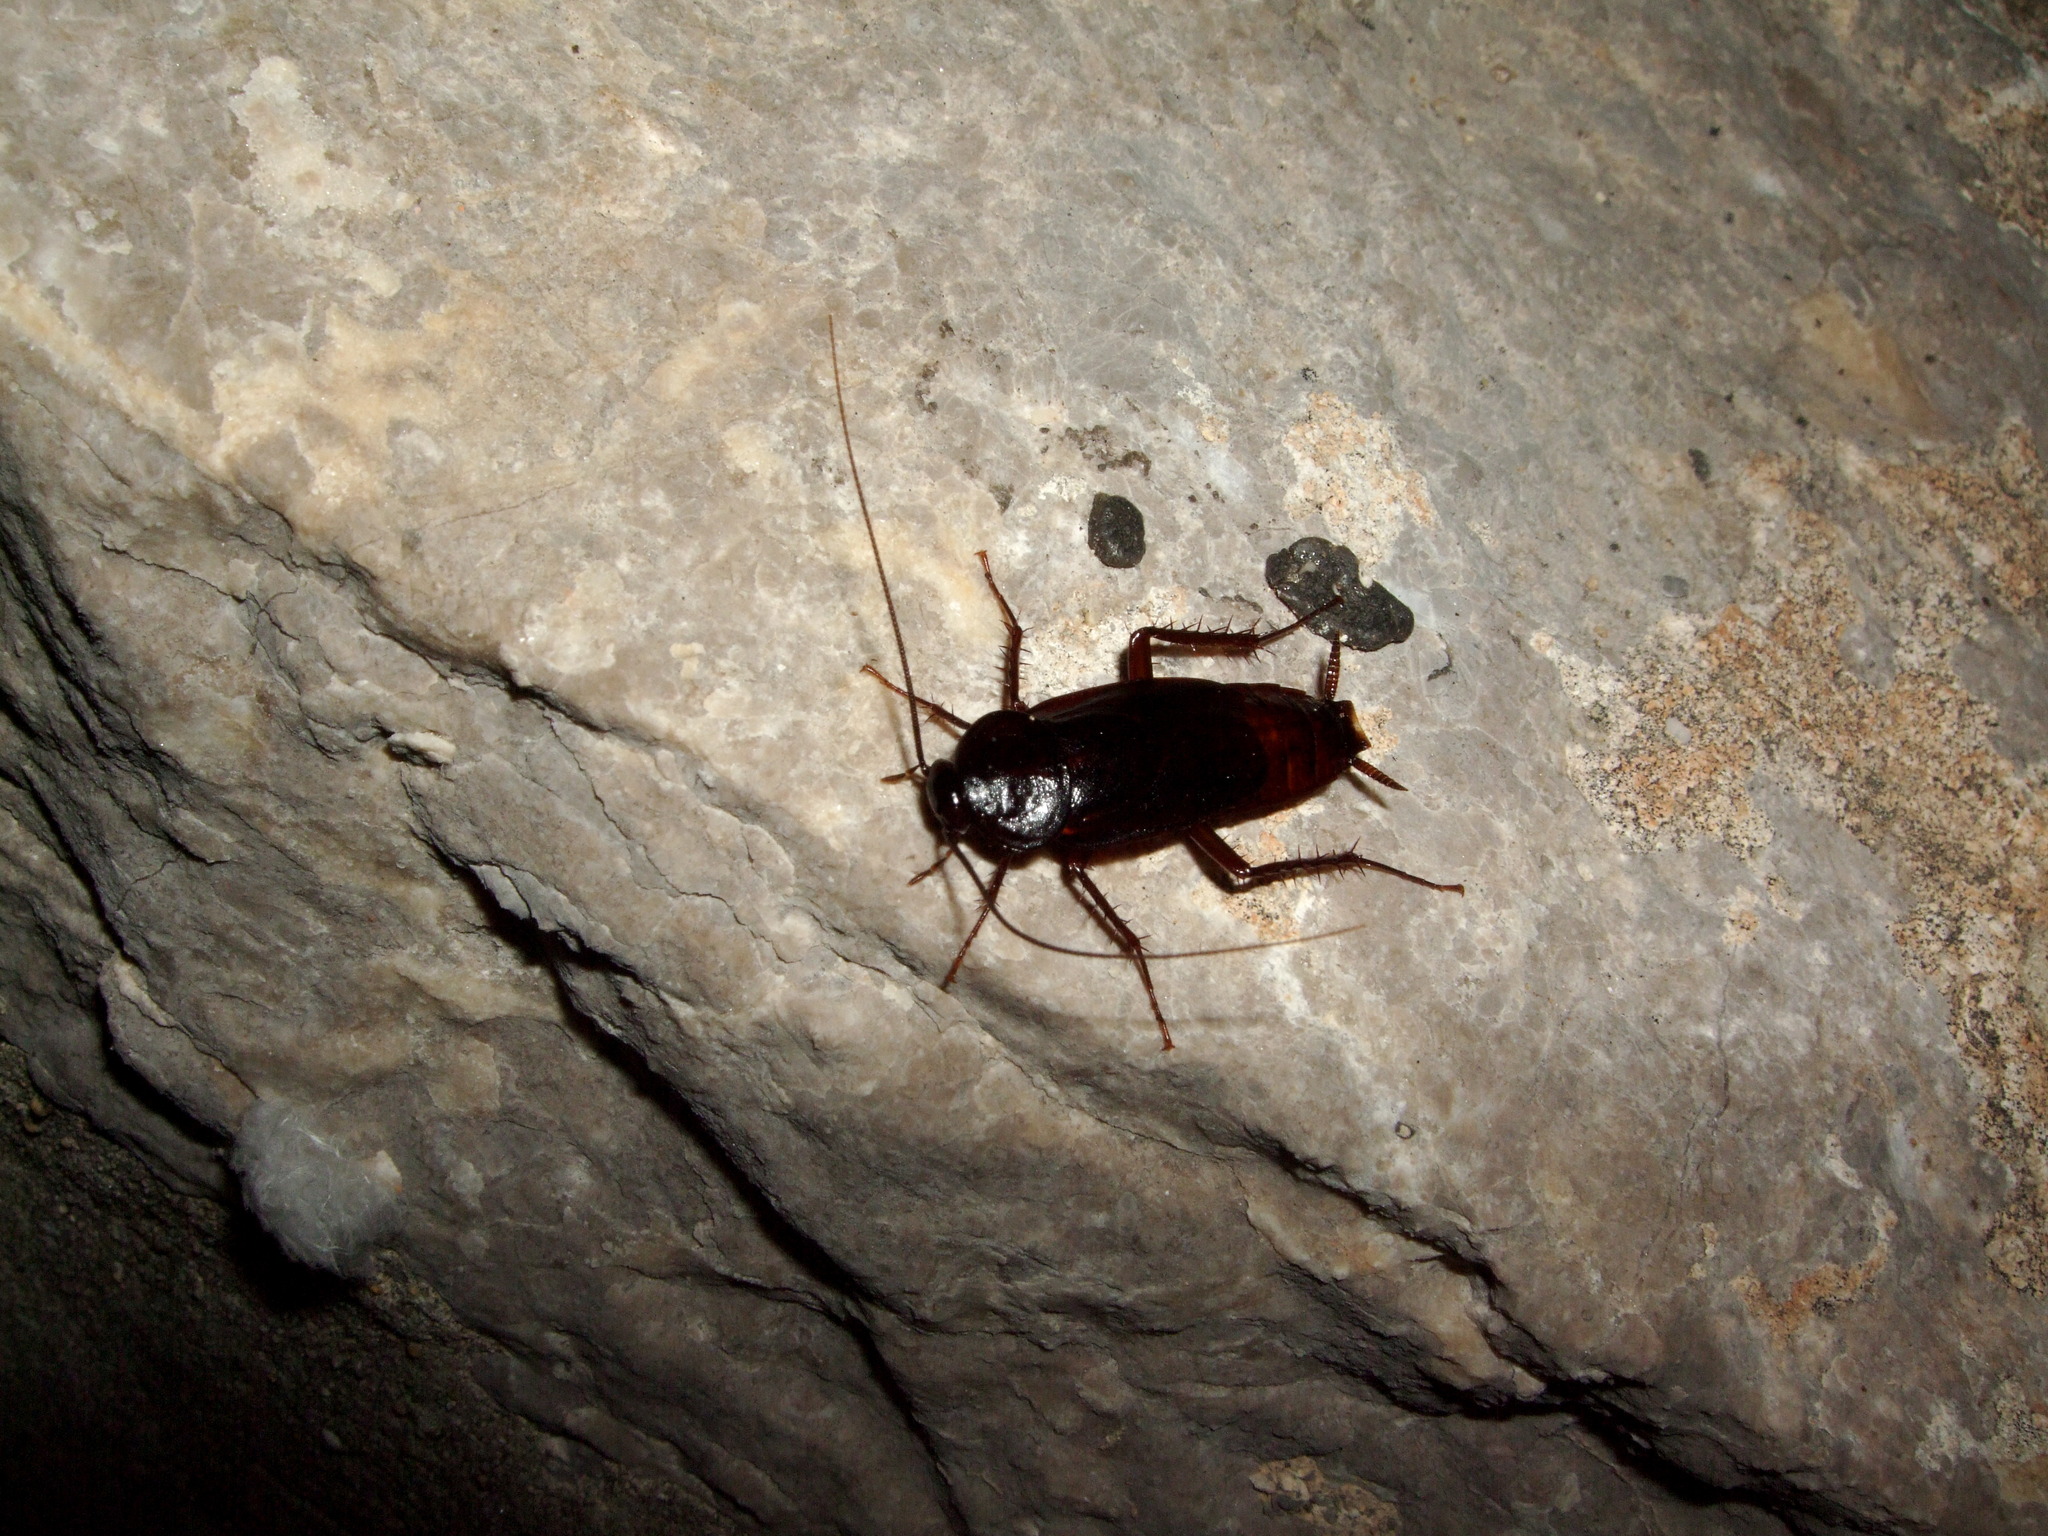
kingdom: Animalia
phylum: Arthropoda
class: Insecta
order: Blattodea
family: Blattidae
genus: Blatta
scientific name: Blatta orientalis
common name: Oriental cockroach
